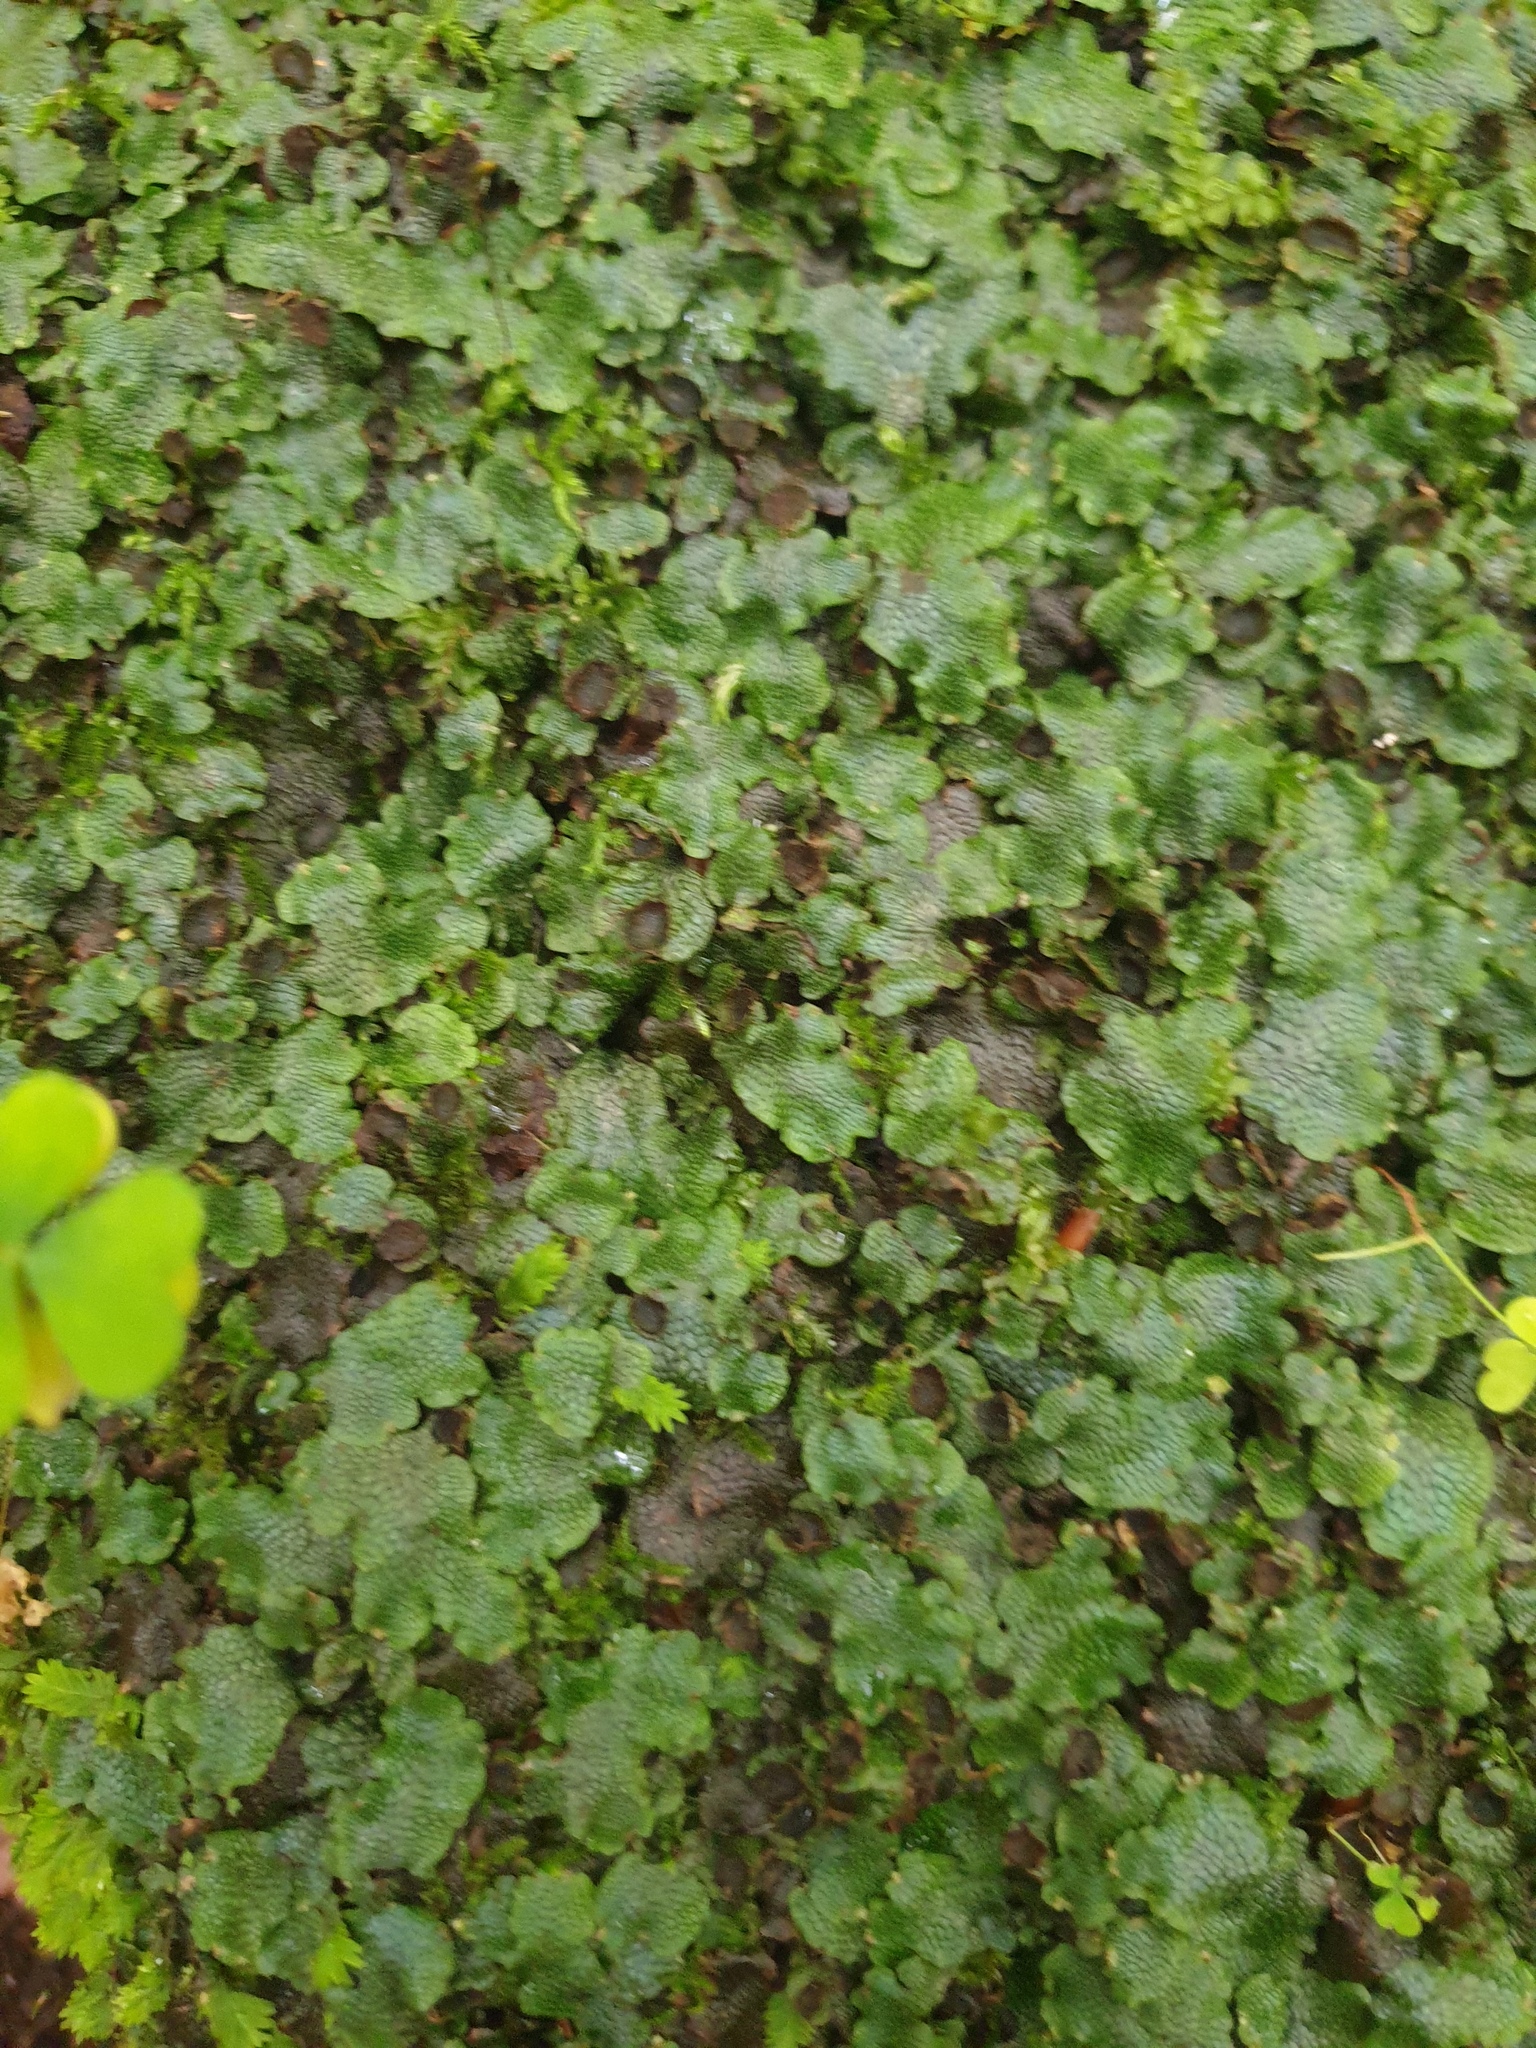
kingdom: Plantae
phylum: Marchantiophyta
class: Marchantiopsida
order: Marchantiales
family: Conocephalaceae
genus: Conocephalum
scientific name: Conocephalum salebrosum
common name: Cat-tongue liverwort
